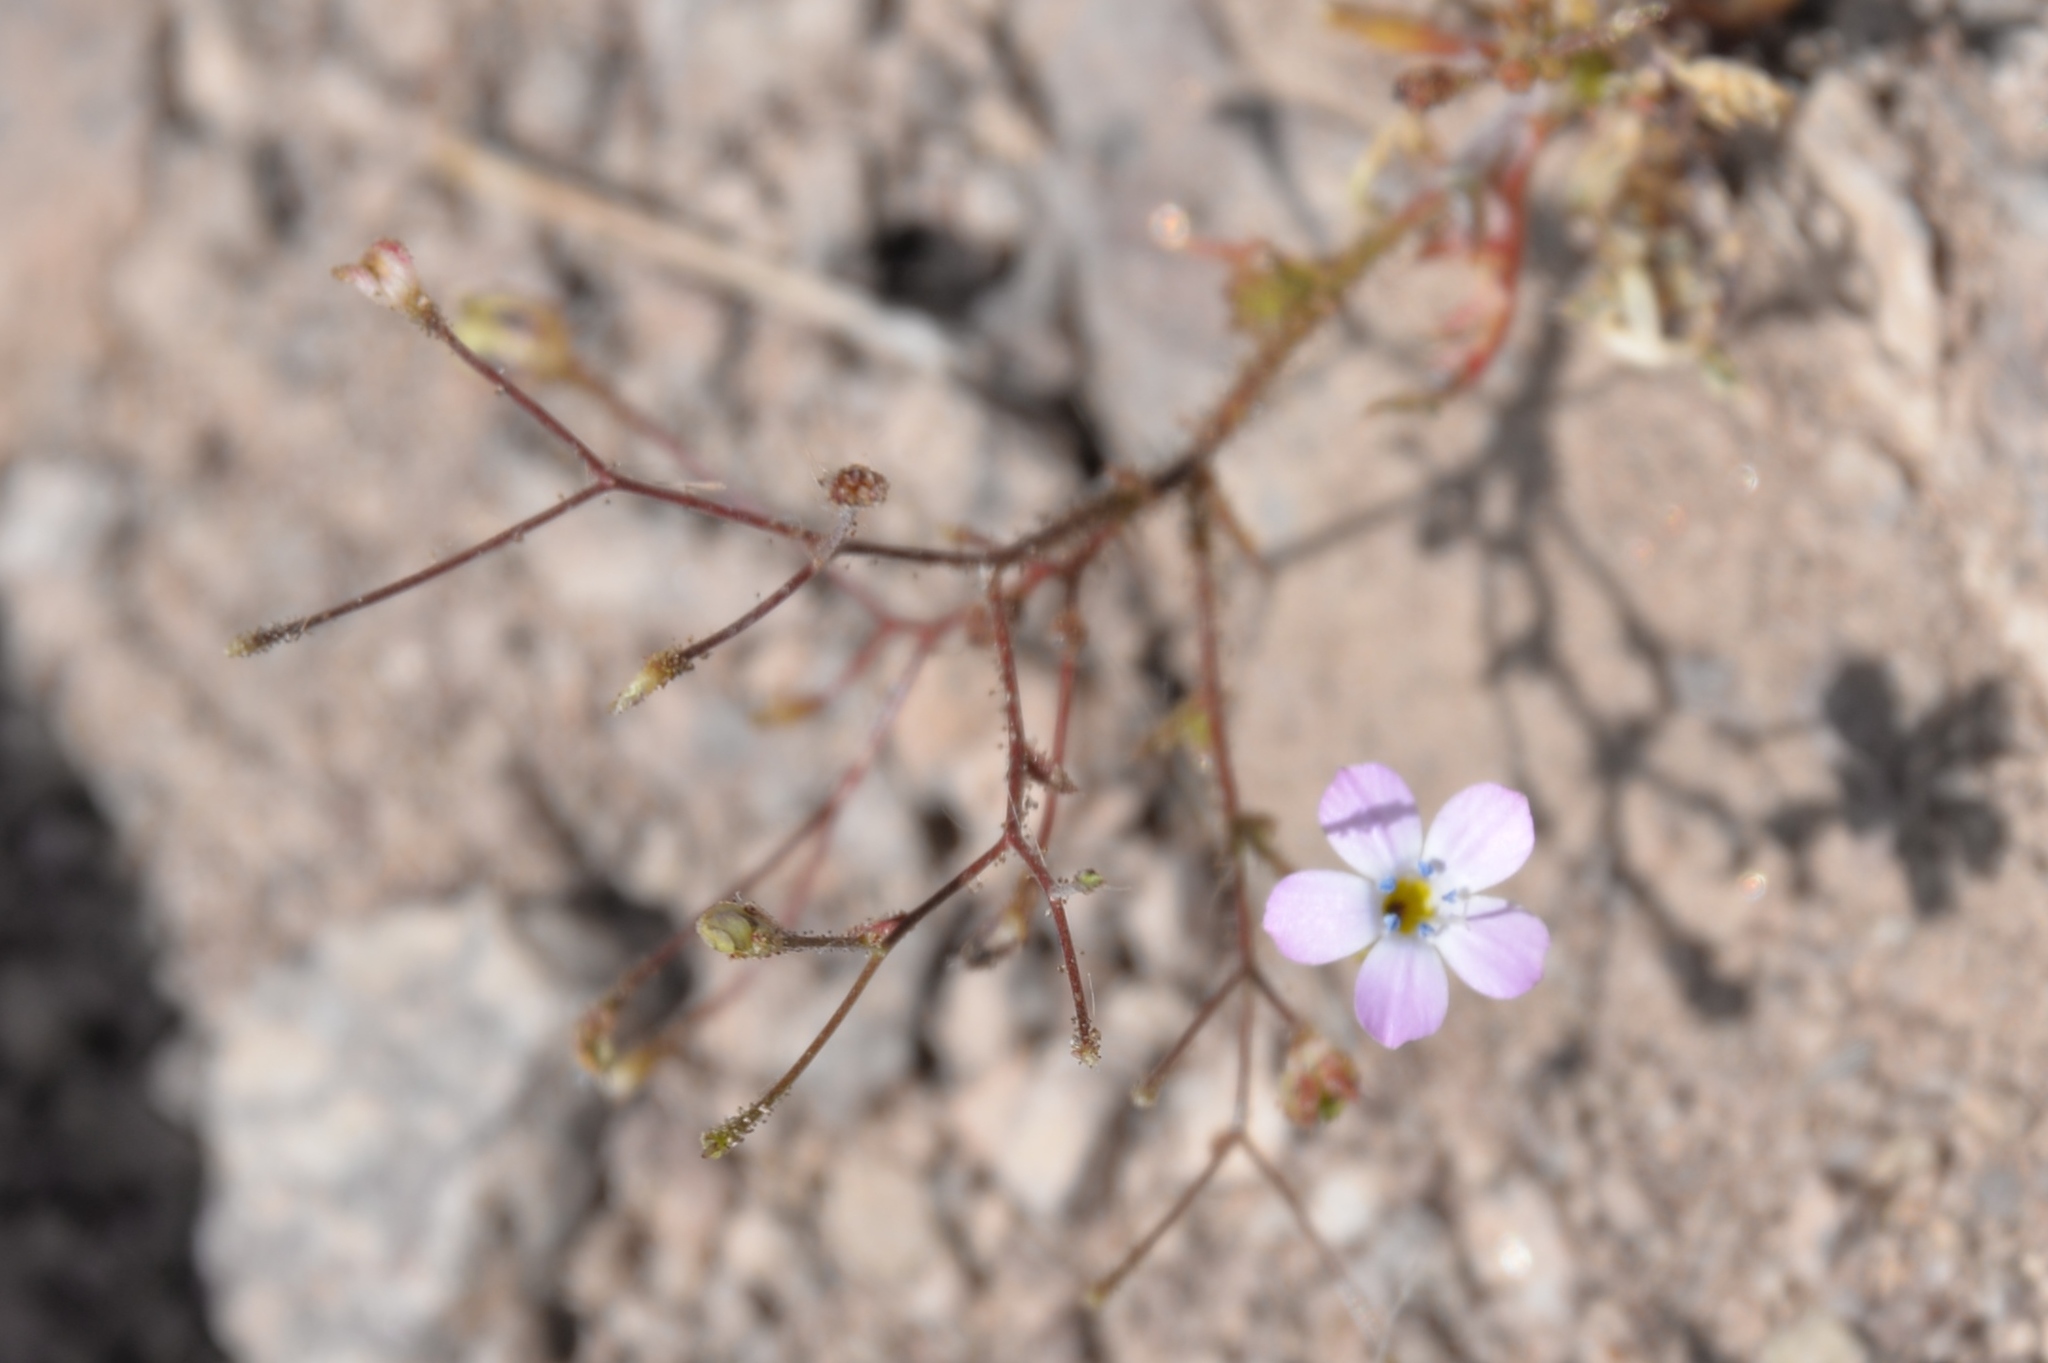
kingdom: Plantae
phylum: Tracheophyta
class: Magnoliopsida
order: Ericales
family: Polemoniaceae
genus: Gilia
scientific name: Gilia cana
